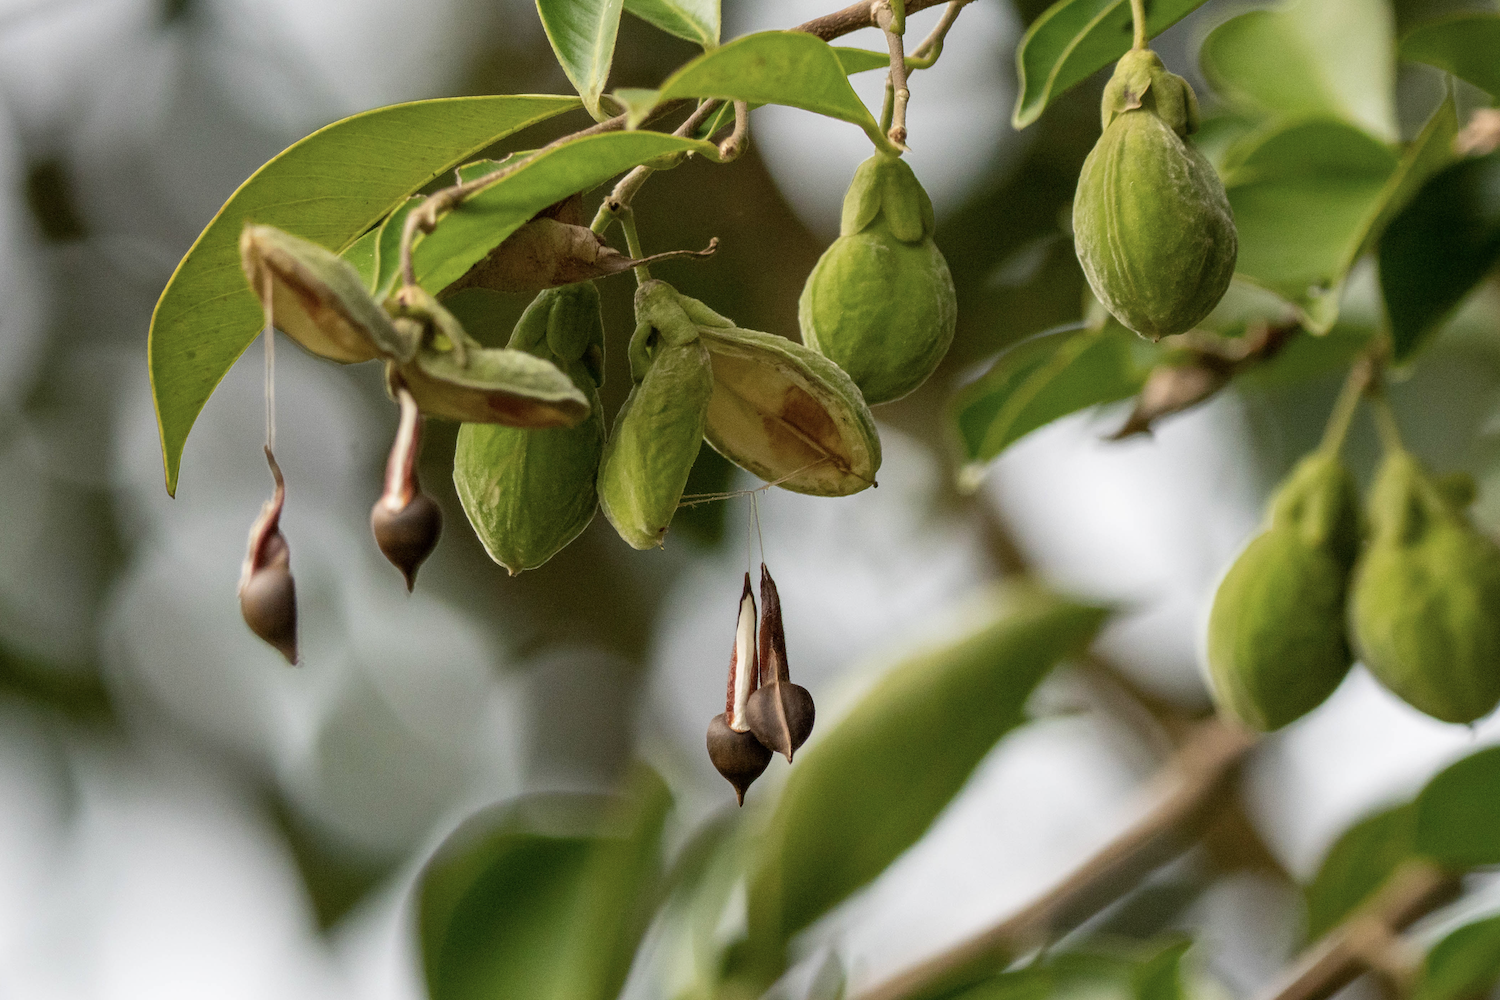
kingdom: Plantae
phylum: Tracheophyta
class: Magnoliopsida
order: Malvales
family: Thymelaeaceae
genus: Aquilaria
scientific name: Aquilaria sinensis
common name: Chinese agarwood
